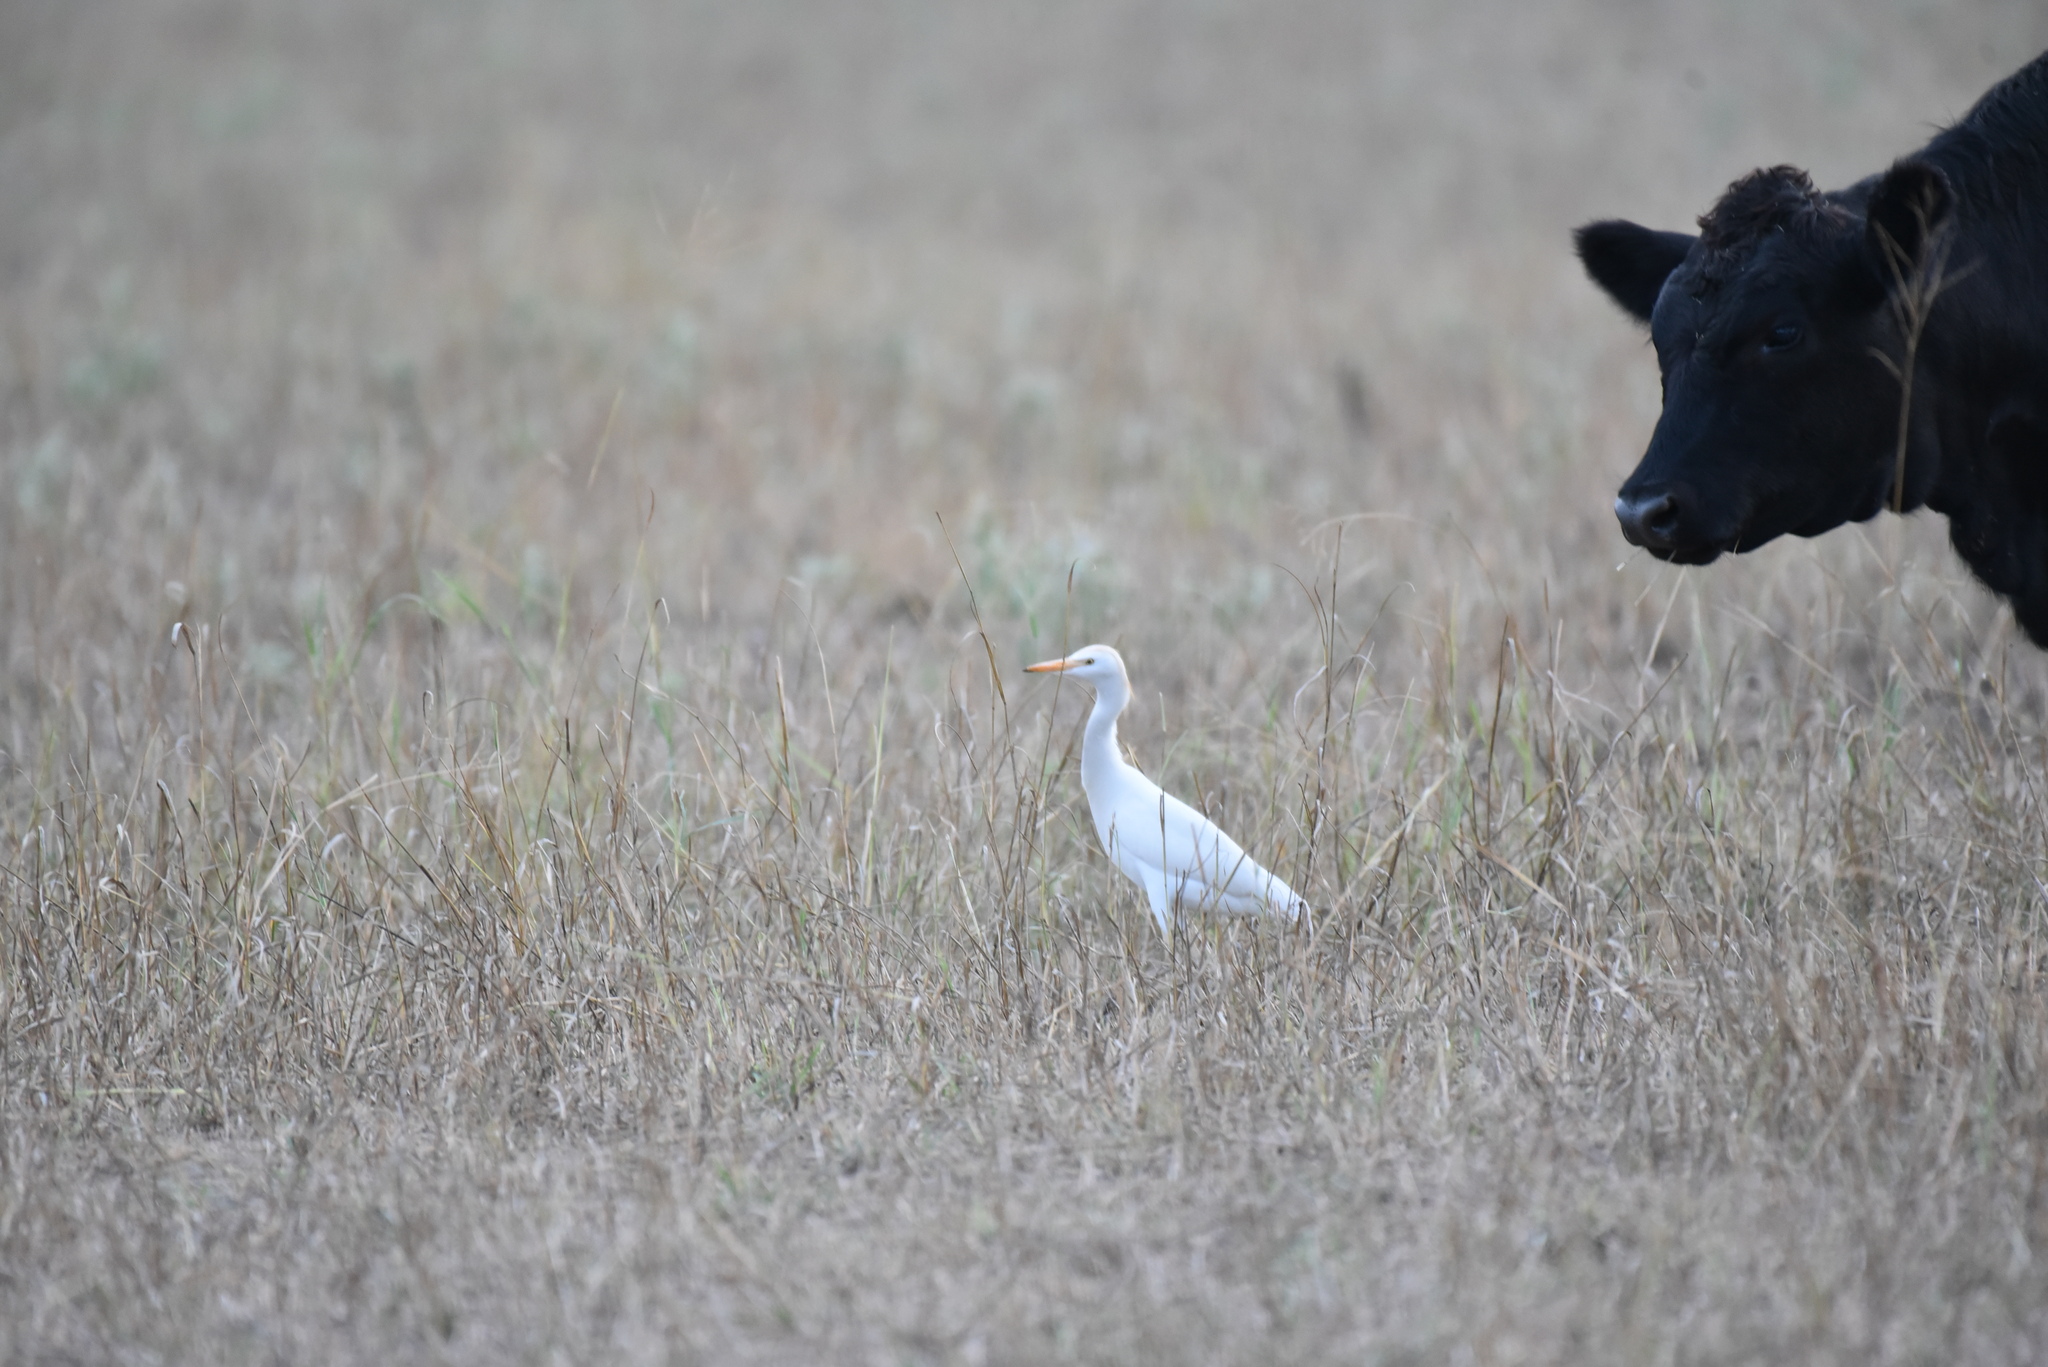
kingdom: Animalia
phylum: Chordata
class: Aves
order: Pelecaniformes
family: Ardeidae
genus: Bubulcus
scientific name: Bubulcus ibis
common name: Cattle egret
